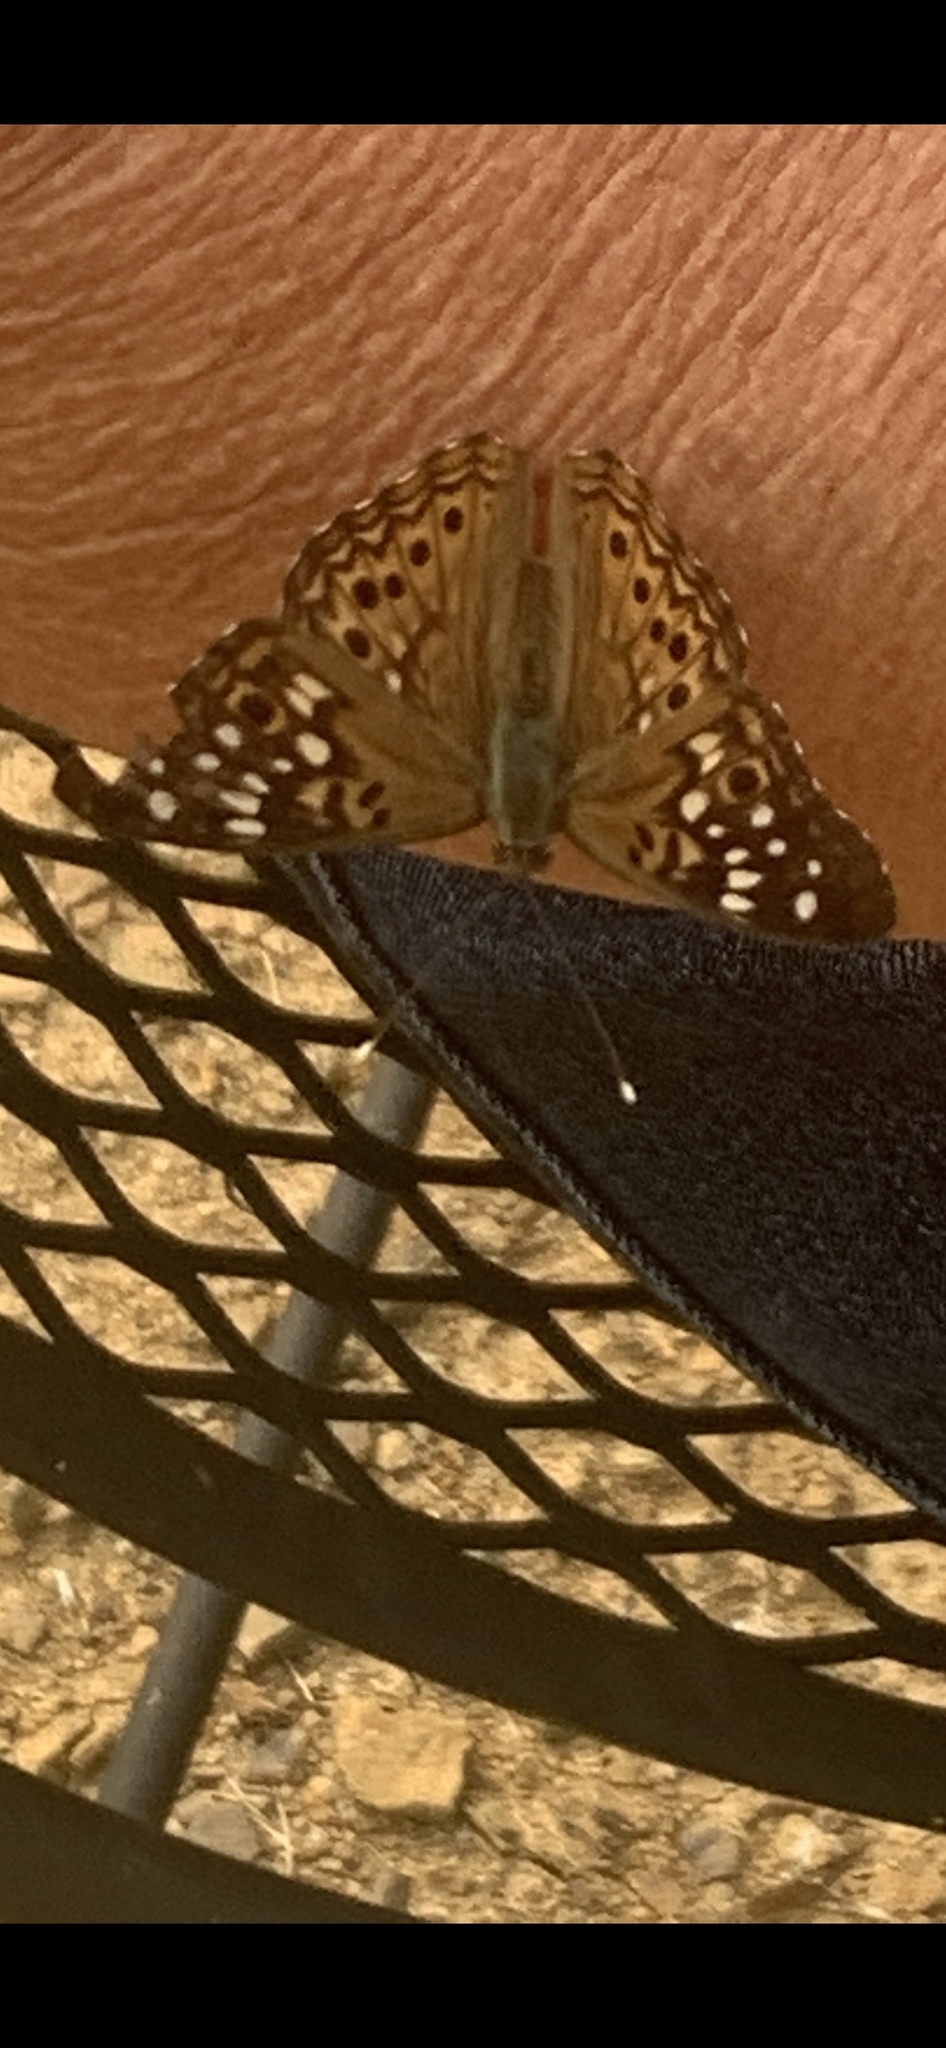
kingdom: Animalia
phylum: Arthropoda
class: Insecta
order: Lepidoptera
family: Nymphalidae
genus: Asterocampa
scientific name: Asterocampa celtis
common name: Hackberry emperor
